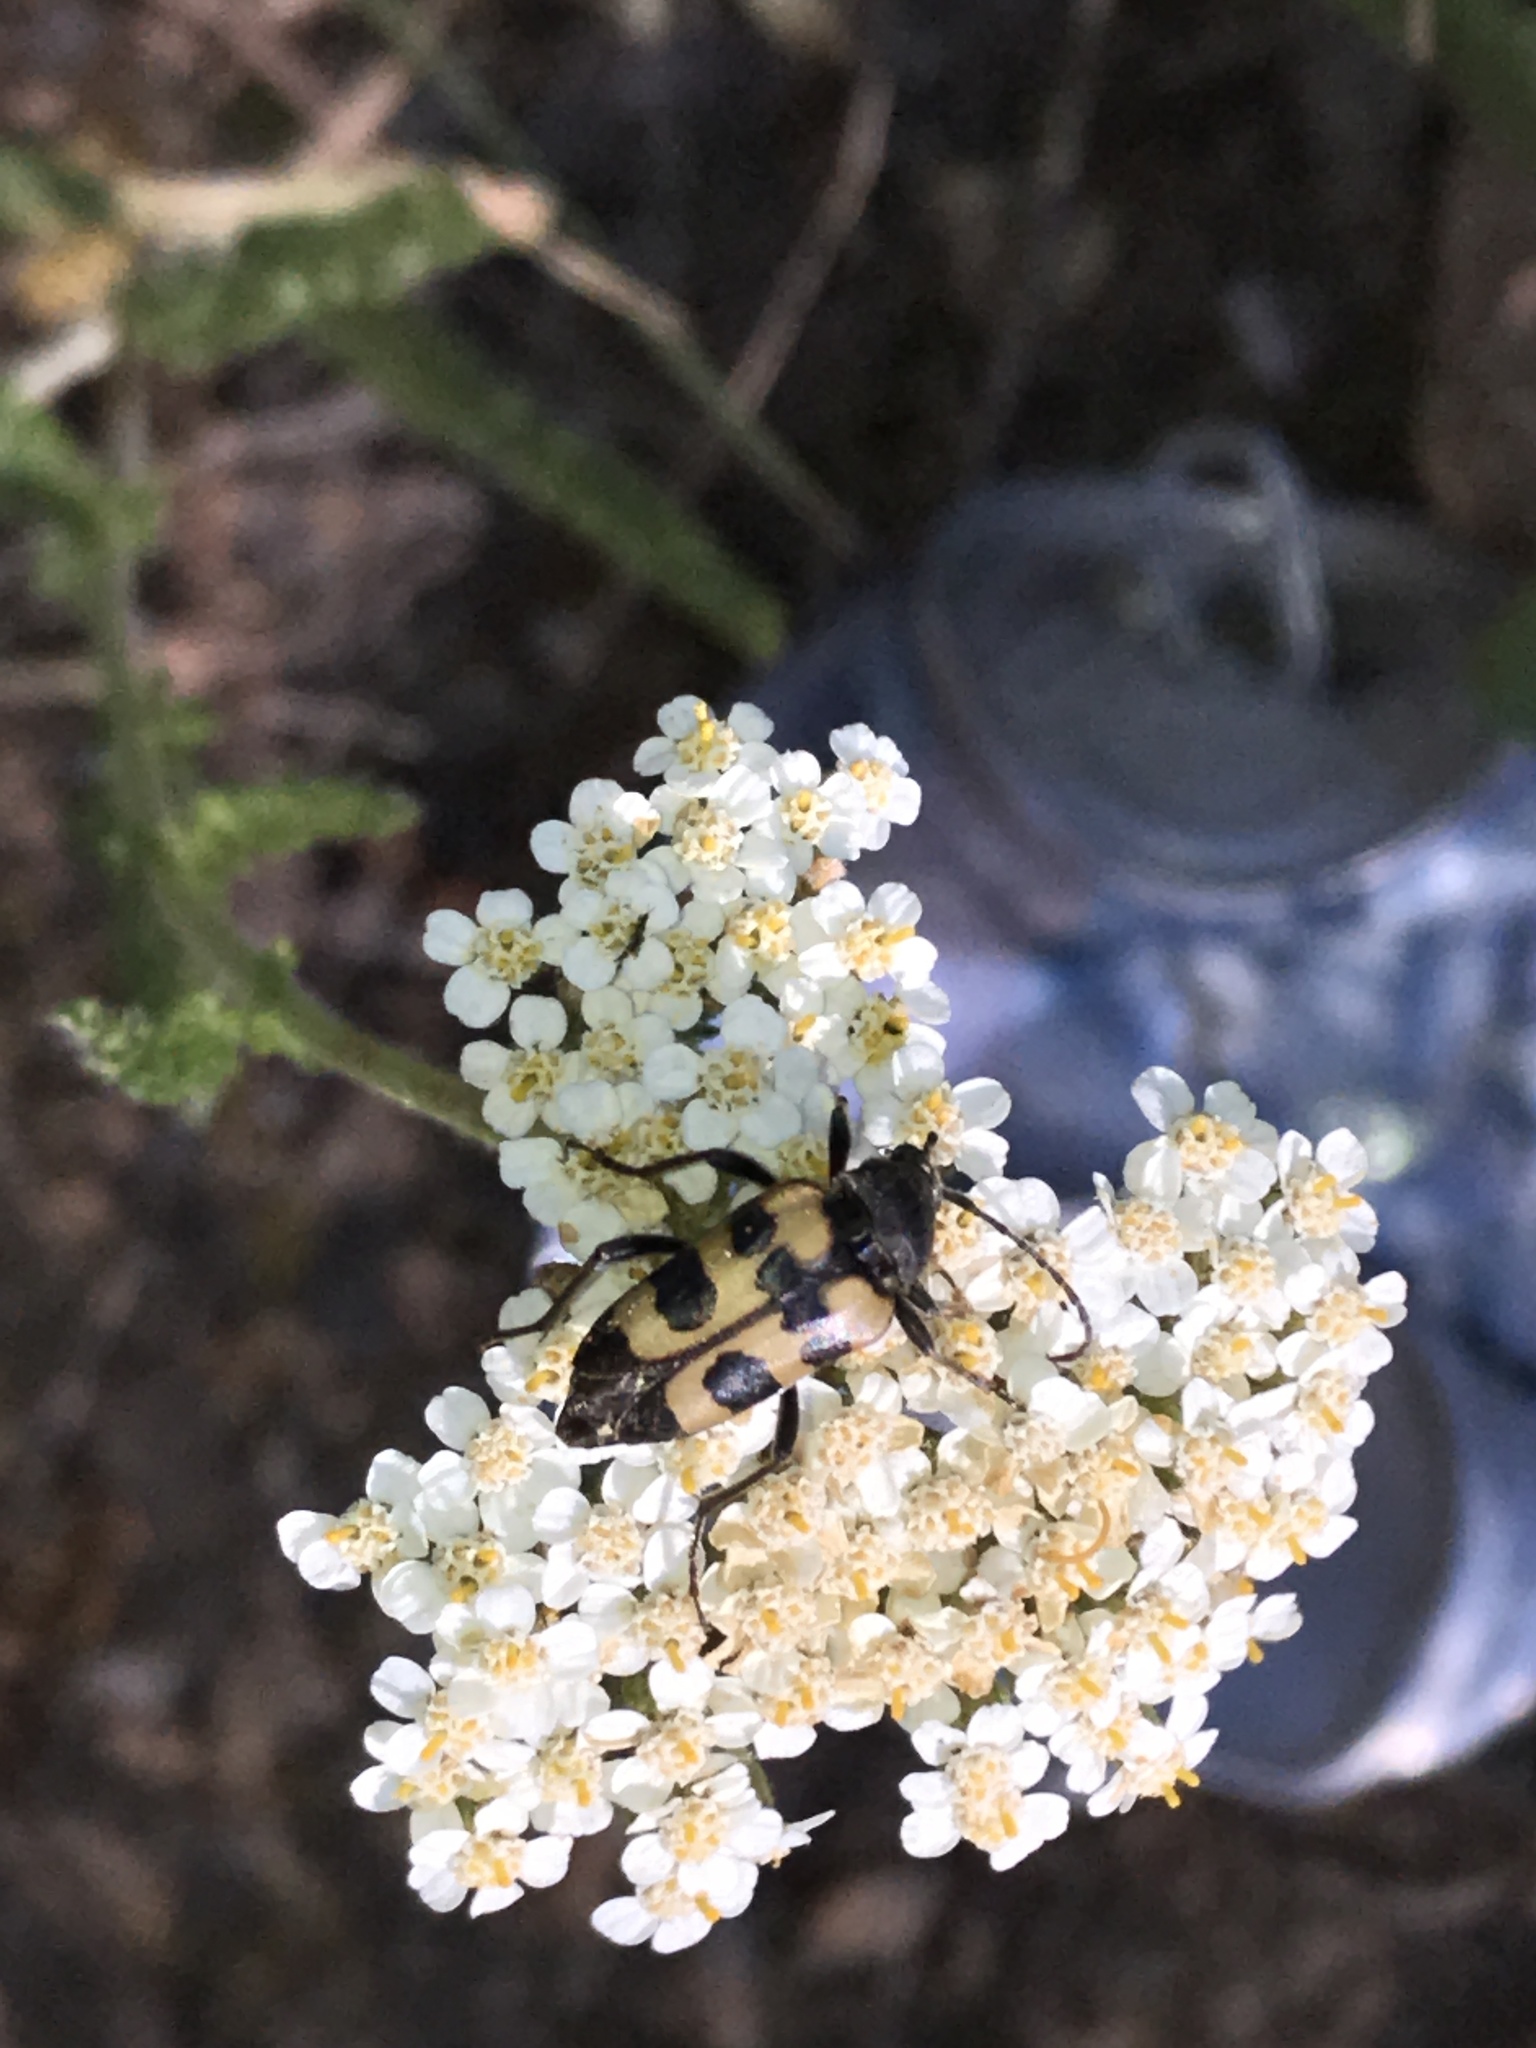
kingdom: Animalia
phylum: Arthropoda
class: Insecta
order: Coleoptera
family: Cerambycidae
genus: Judolia
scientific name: Judolia instabilis
